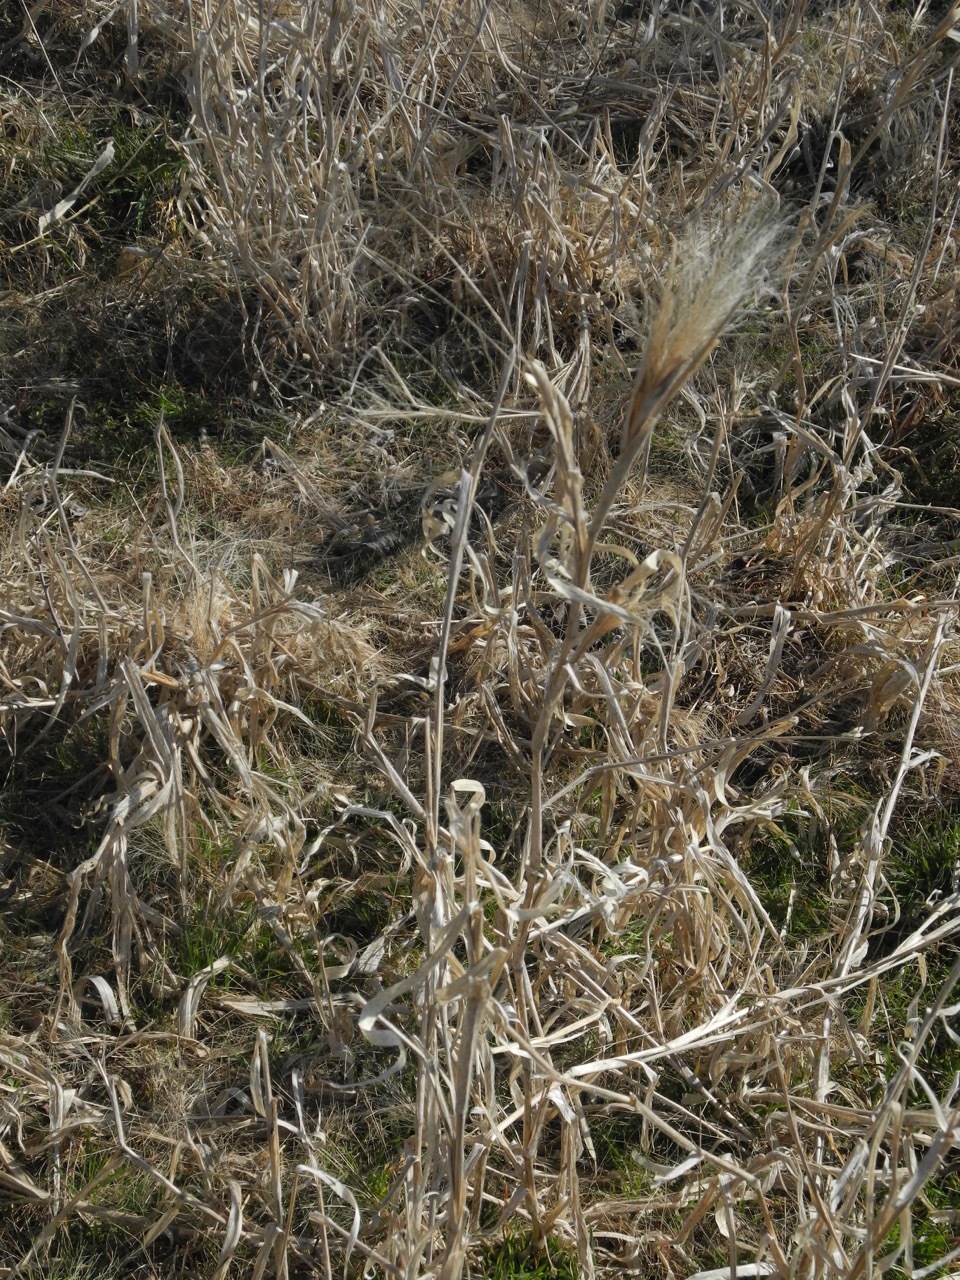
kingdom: Plantae
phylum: Tracheophyta
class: Liliopsida
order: Poales
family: Poaceae
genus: Dichanthelium
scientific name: Dichanthelium scoparium
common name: Velvety panic grass
